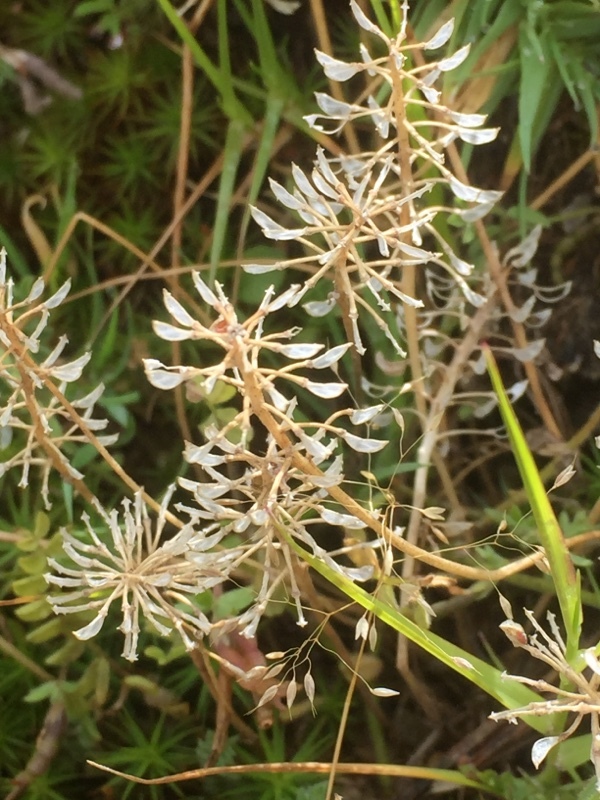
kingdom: Plantae
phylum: Tracheophyta
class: Magnoliopsida
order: Brassicales
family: Brassicaceae
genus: Teesdalia
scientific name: Teesdalia nudicaulis
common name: Shepherd's cress
